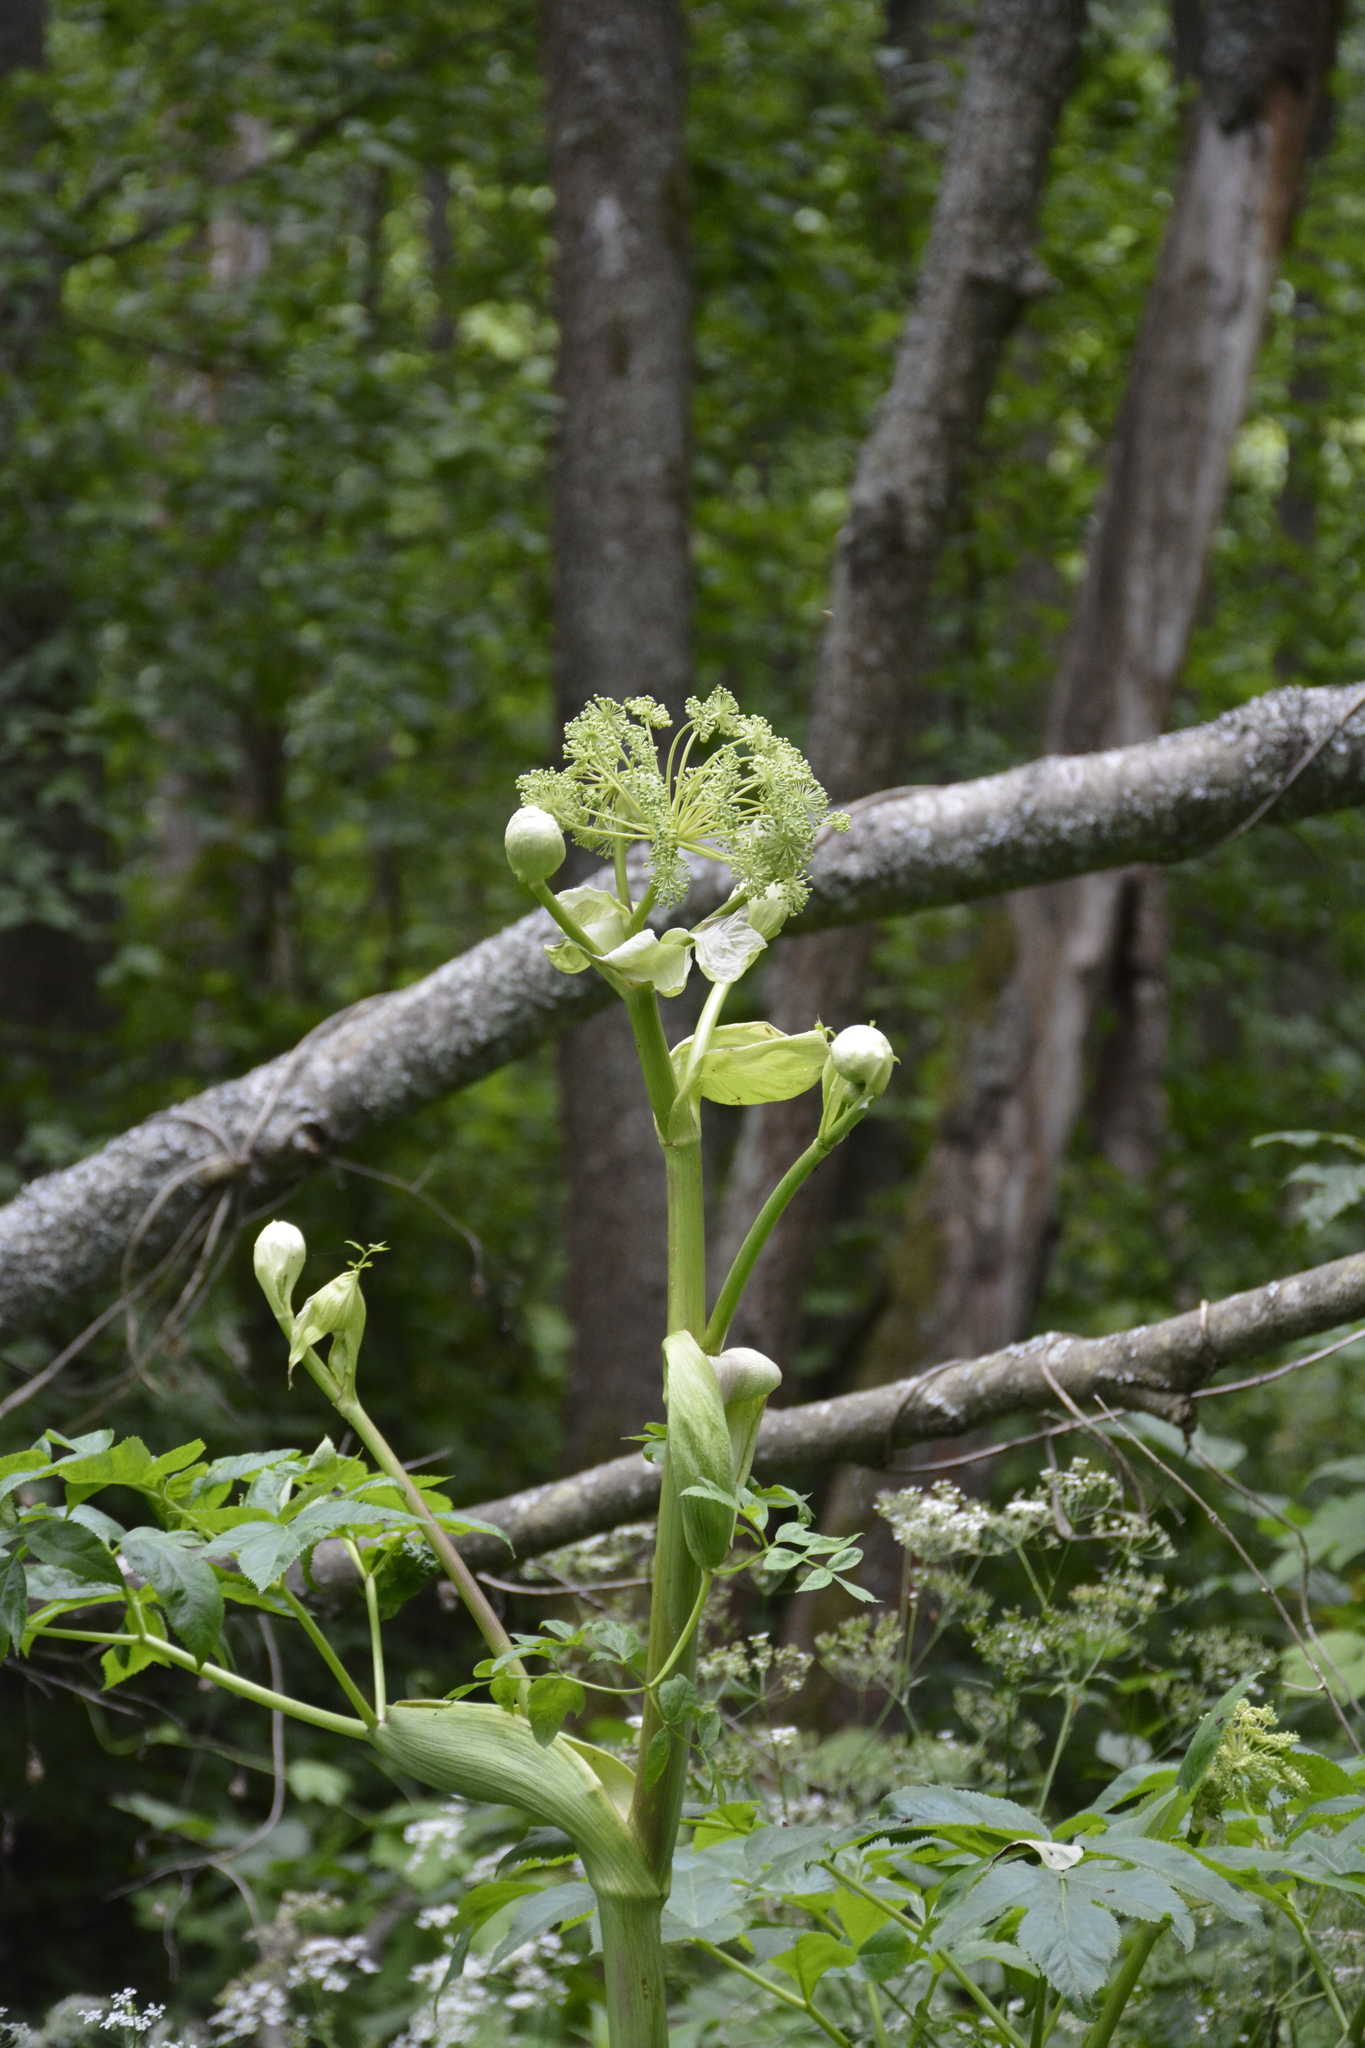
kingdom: Plantae
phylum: Tracheophyta
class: Magnoliopsida
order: Apiales
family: Apiaceae
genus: Angelica
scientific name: Angelica archangelica
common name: Garden angelica
